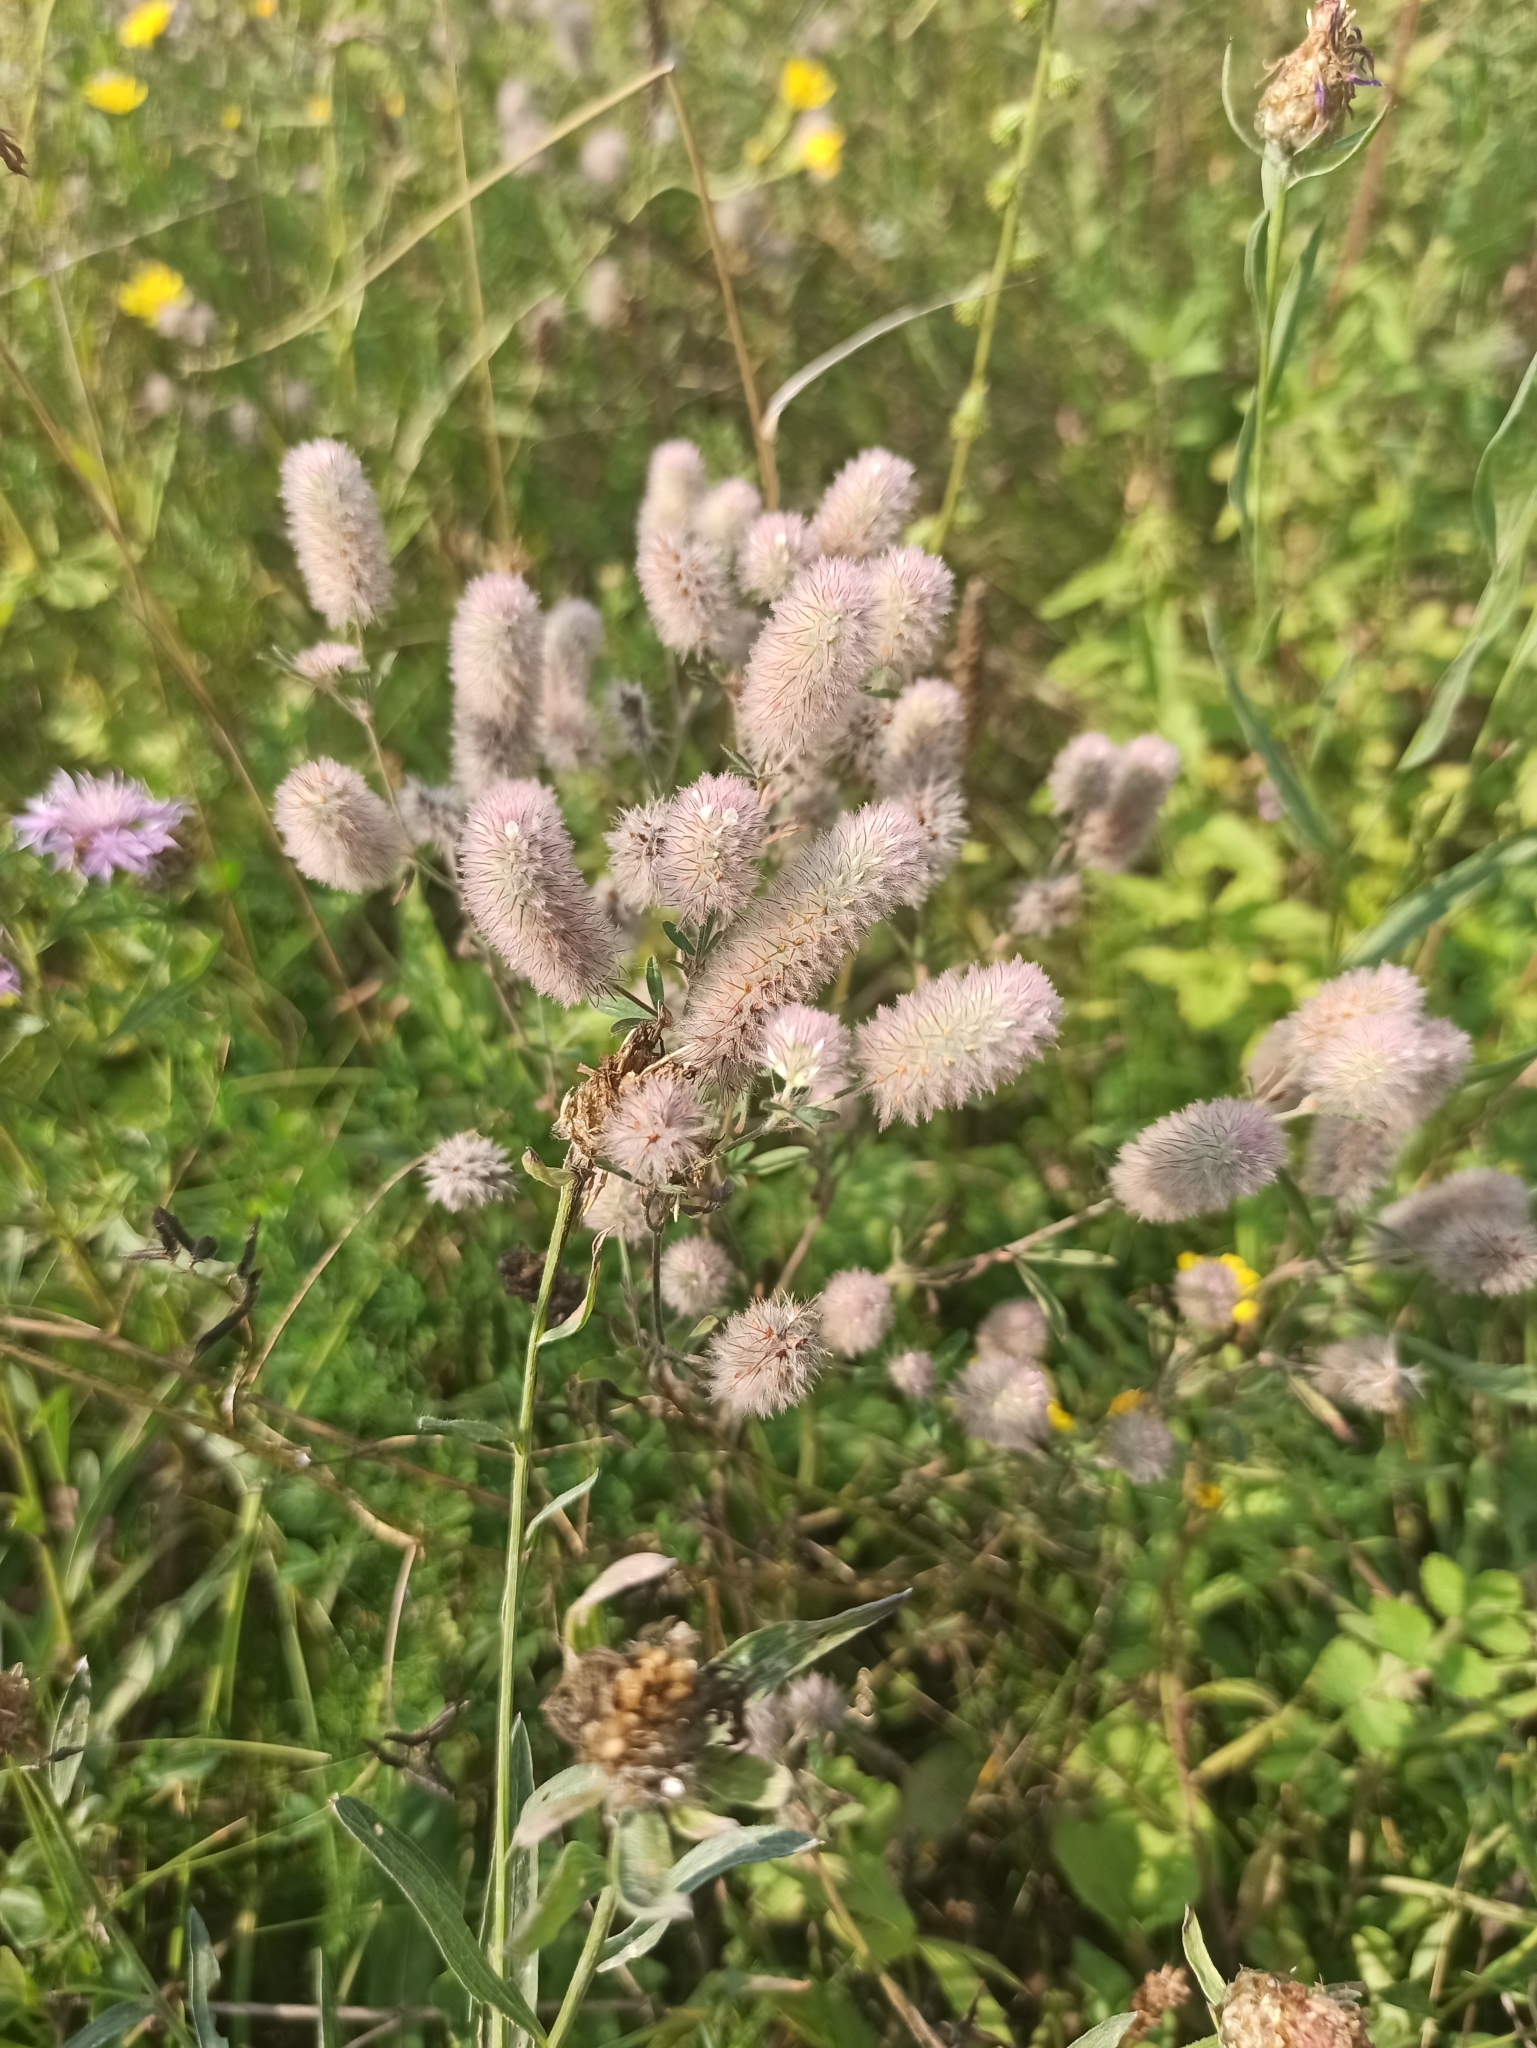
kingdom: Plantae
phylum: Tracheophyta
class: Magnoliopsida
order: Fabales
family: Fabaceae
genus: Trifolium
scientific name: Trifolium arvense
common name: Hare's-foot clover
